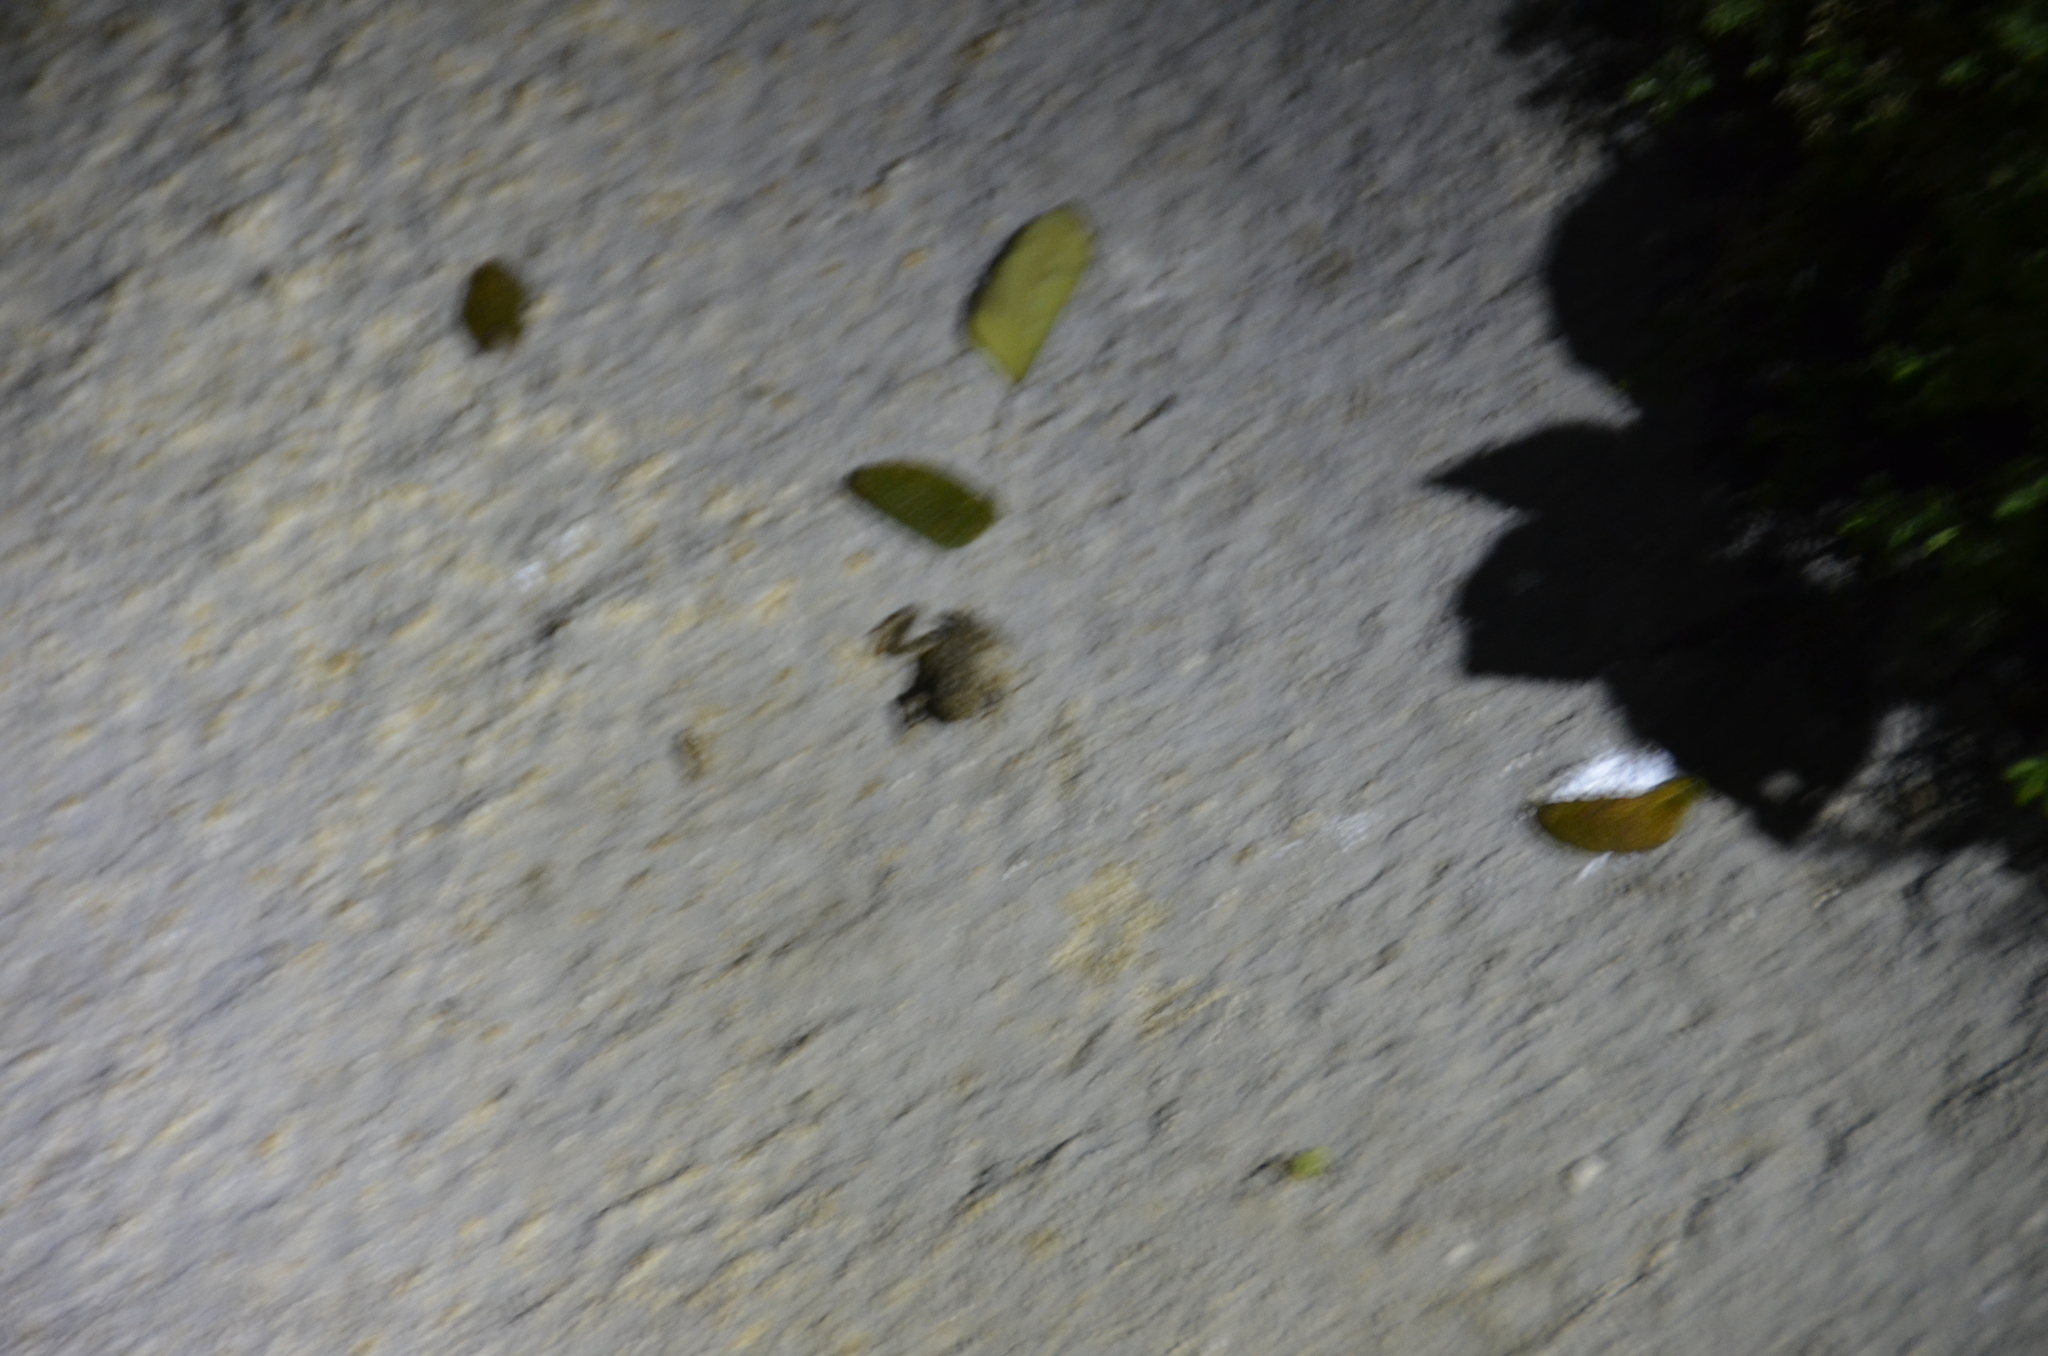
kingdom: Animalia
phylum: Chordata
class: Amphibia
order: Anura
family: Bufonidae
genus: Rhinella
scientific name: Rhinella horribilis
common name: Mesoamerican cane toad
